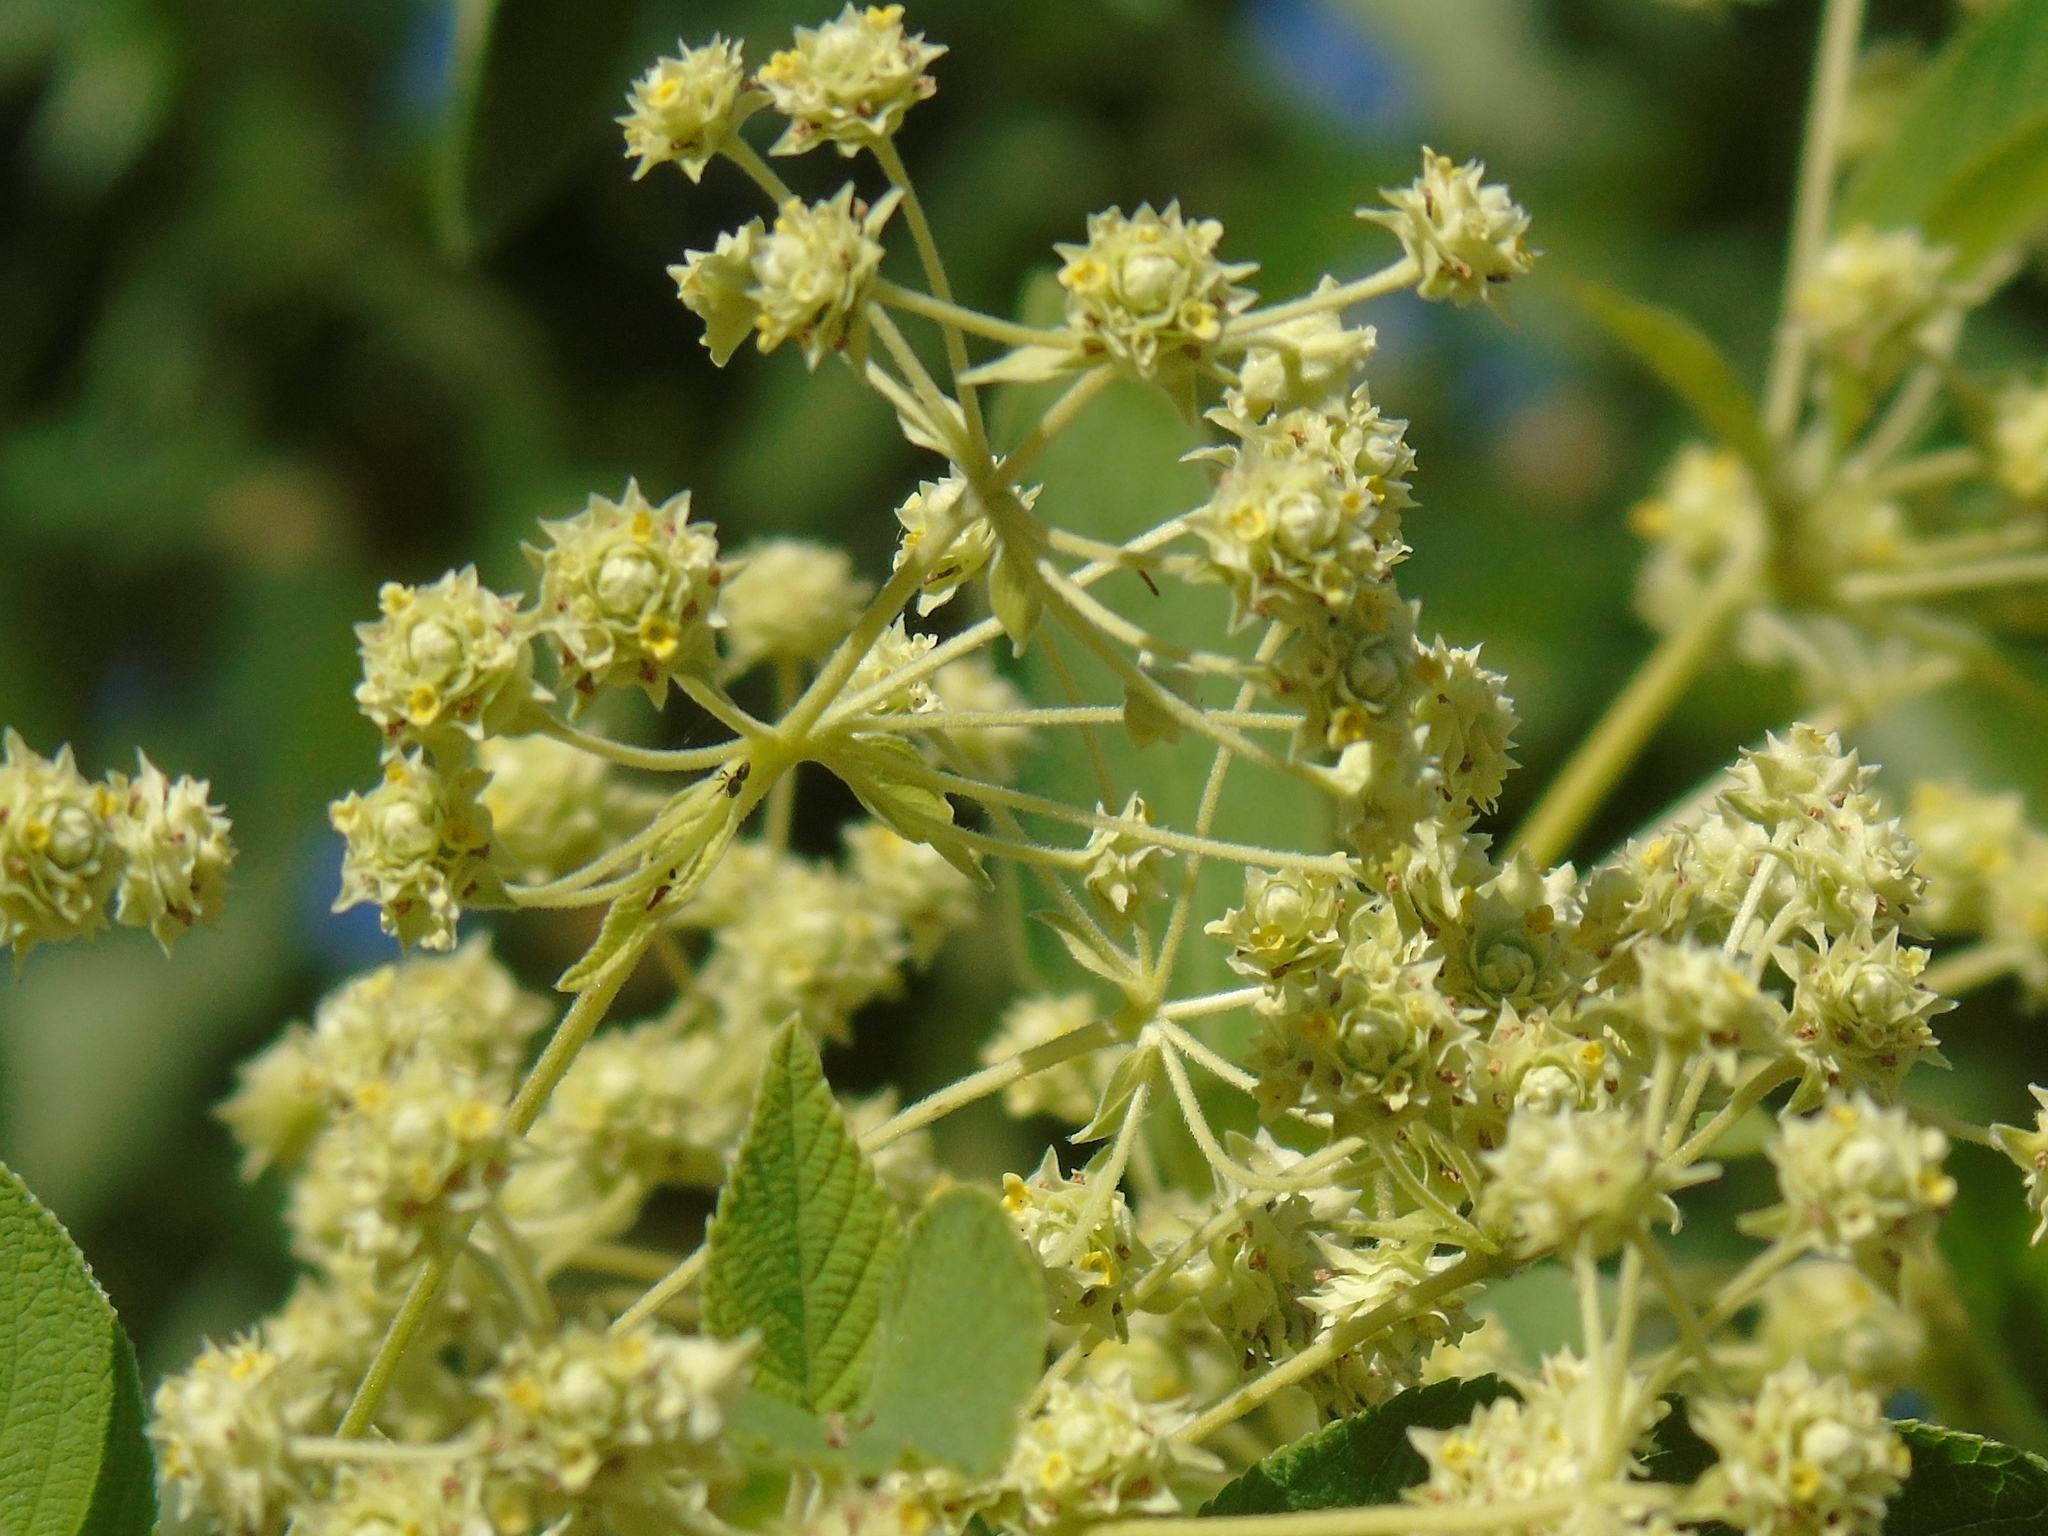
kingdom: Plantae
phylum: Tracheophyta
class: Magnoliopsida
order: Lamiales
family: Verbenaceae
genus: Lippia
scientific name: Lippia umbellata
